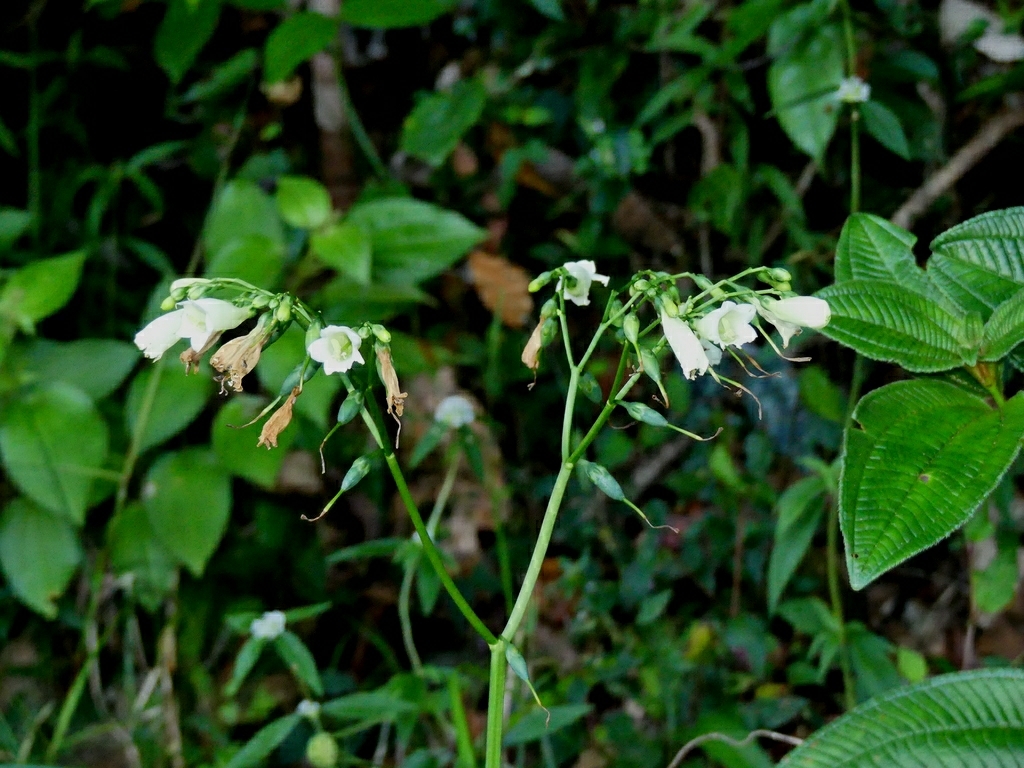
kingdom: Plantae
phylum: Tracheophyta
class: Magnoliopsida
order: Gentianales
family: Gentianaceae
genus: Chelonanthus
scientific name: Chelonanthus alatus
